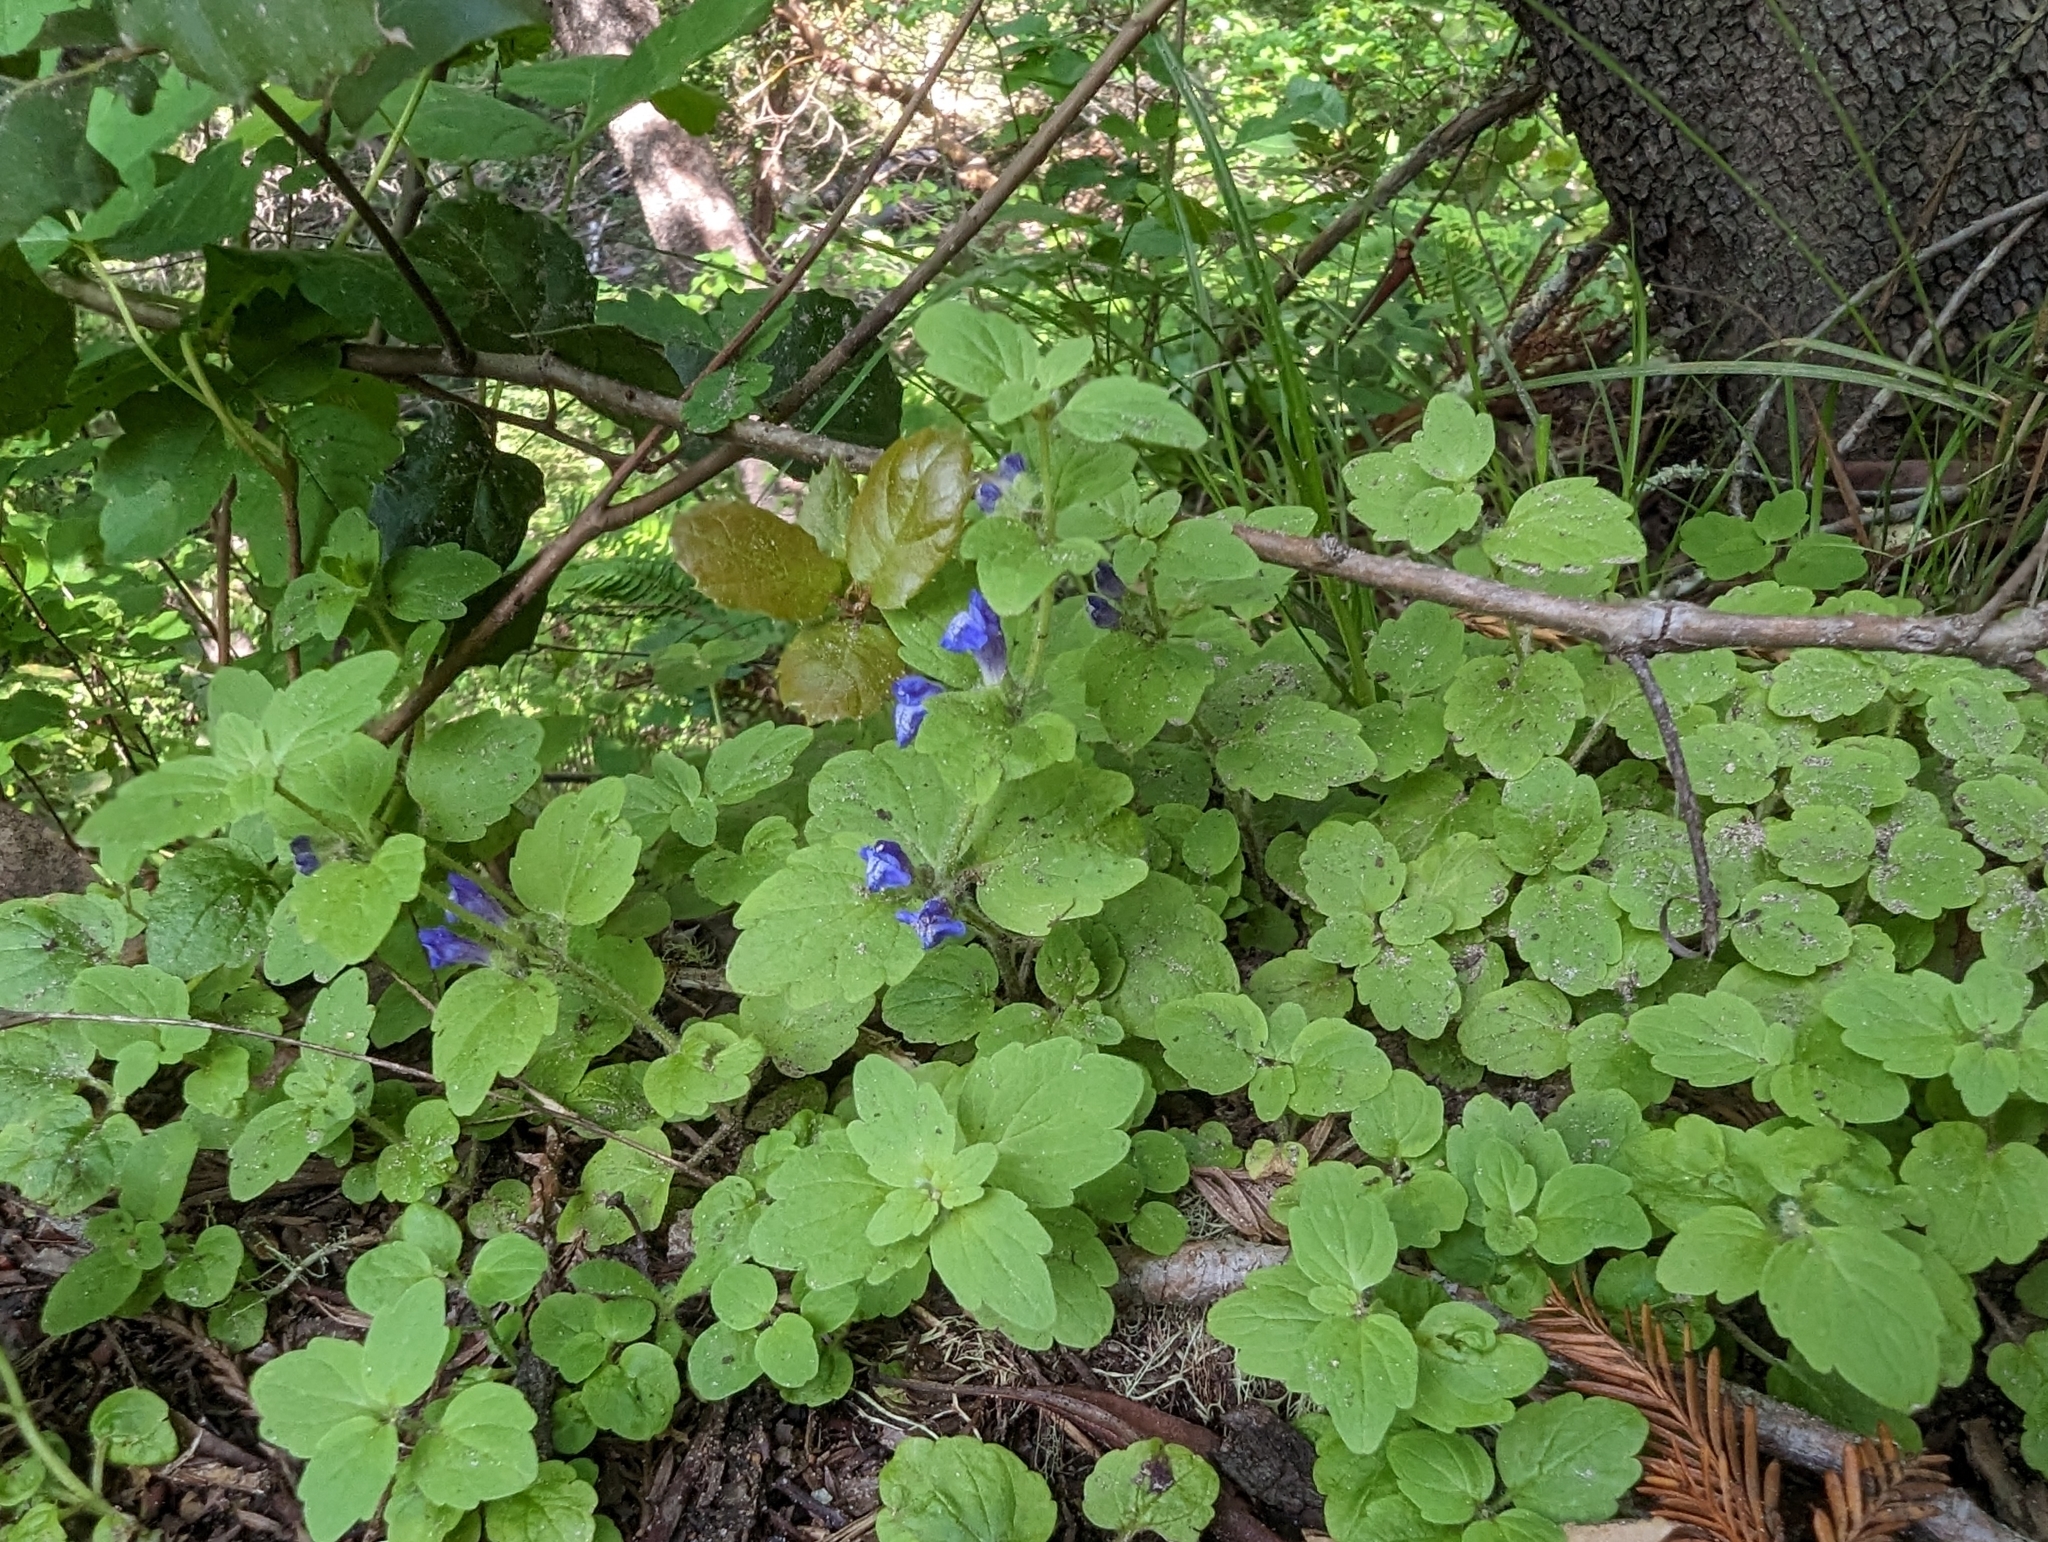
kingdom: Plantae
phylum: Tracheophyta
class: Magnoliopsida
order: Lamiales
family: Lamiaceae
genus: Scutellaria
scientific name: Scutellaria tuberosa
